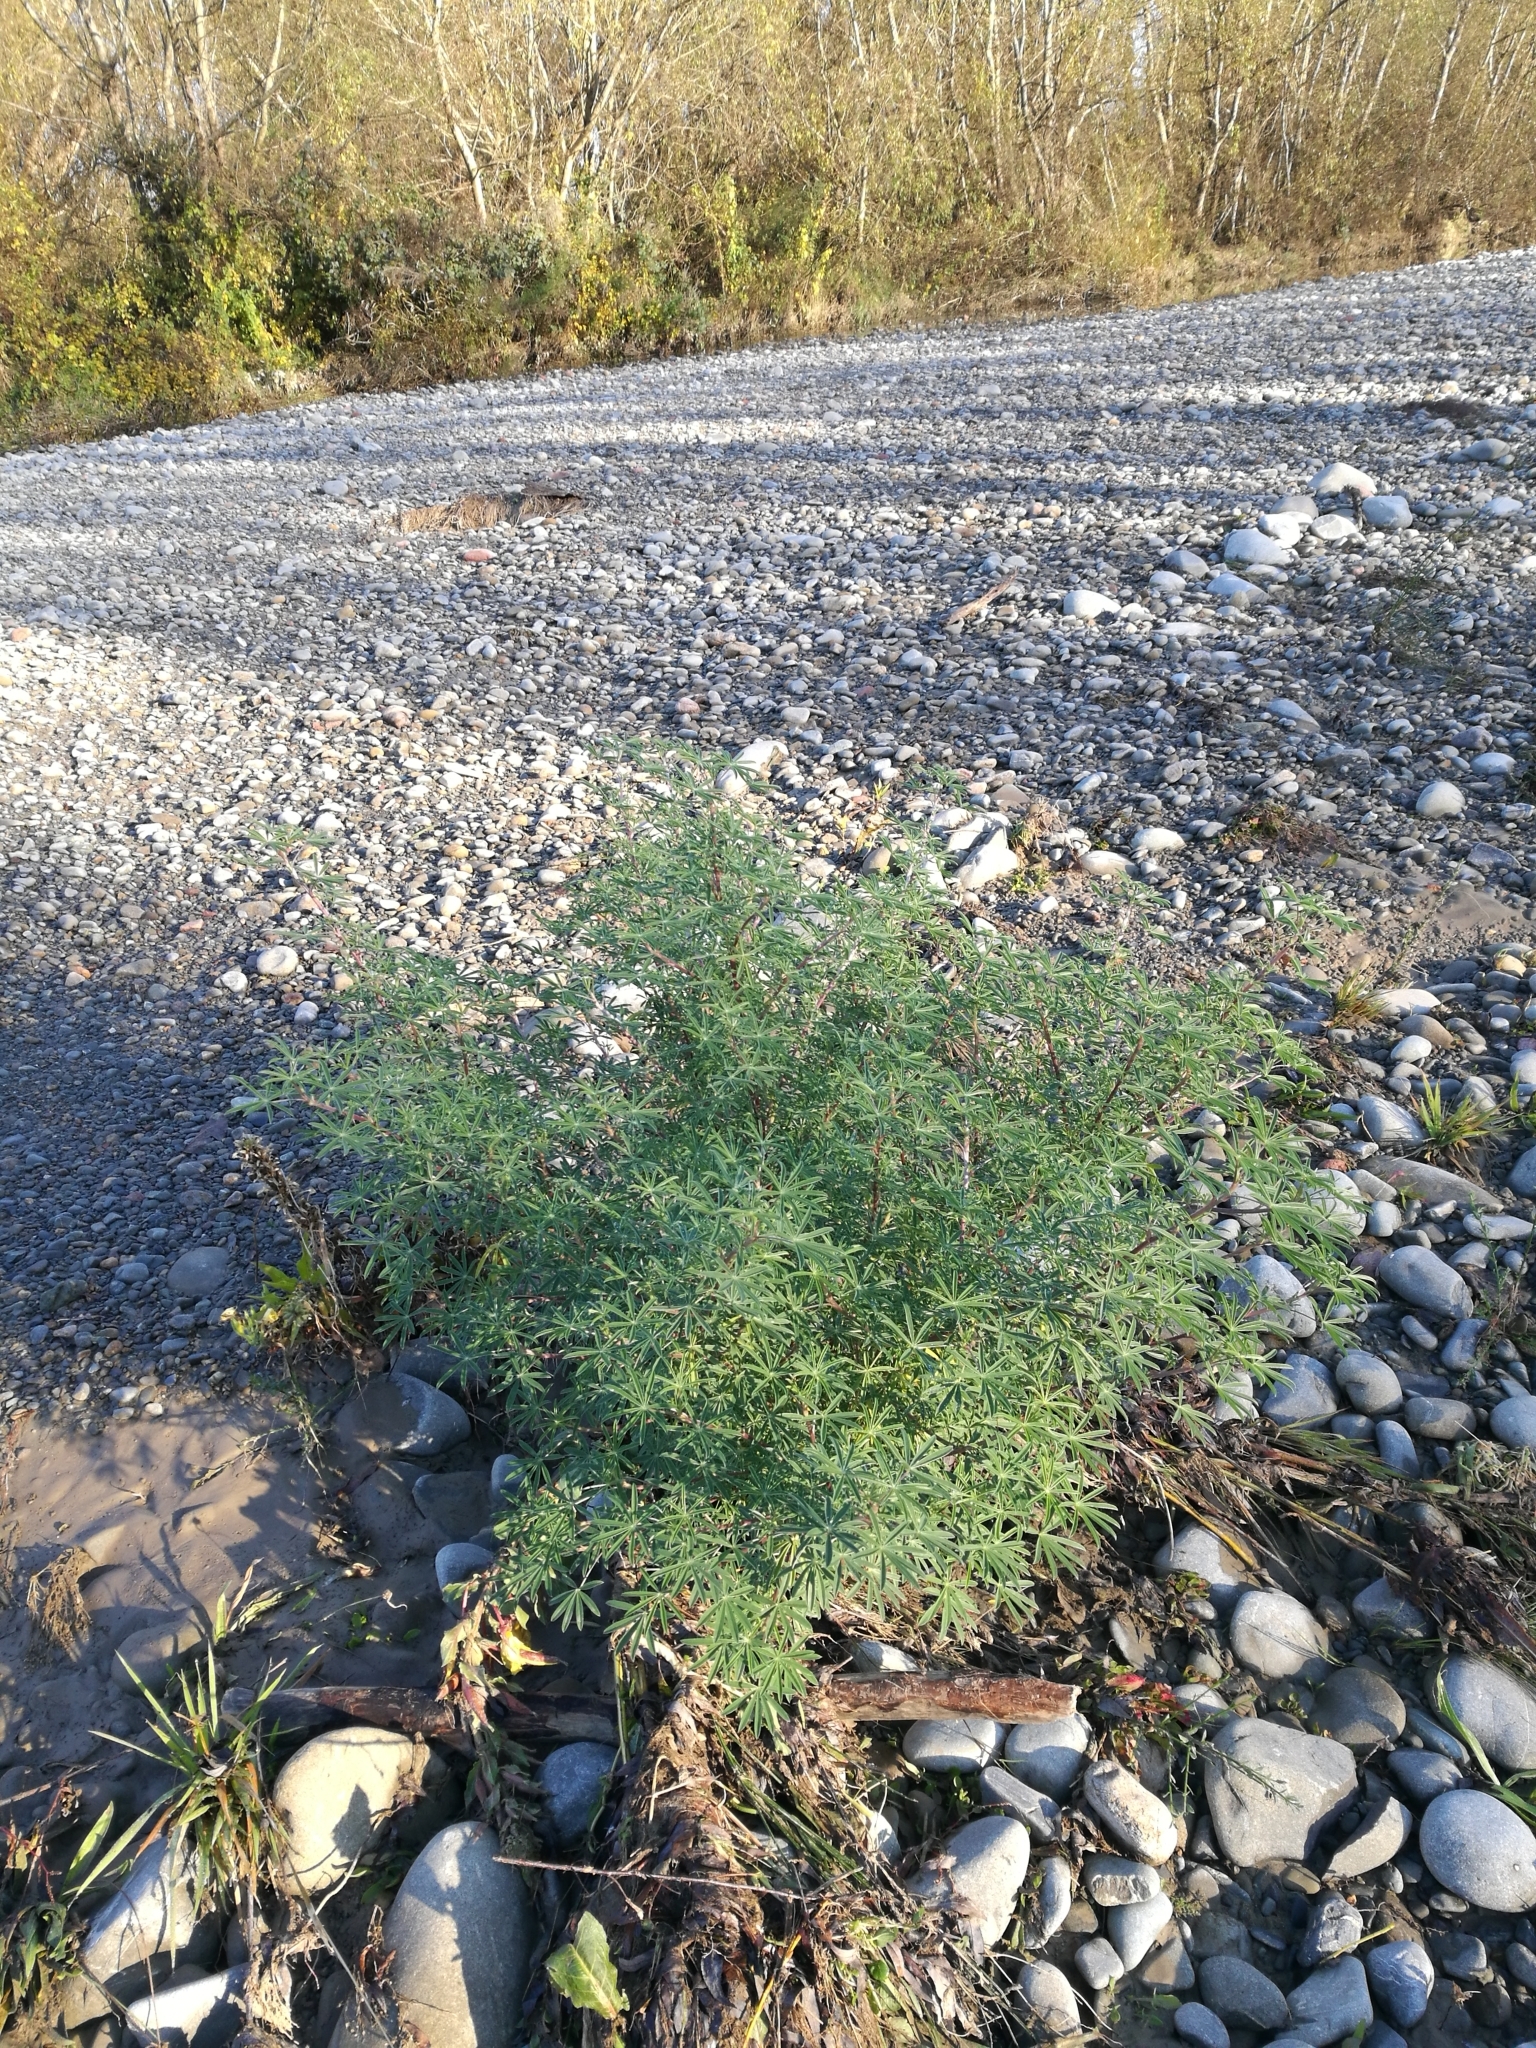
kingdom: Plantae
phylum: Tracheophyta
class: Magnoliopsida
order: Fabales
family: Fabaceae
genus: Lupinus
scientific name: Lupinus arboreus
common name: Yellow bush lupine
